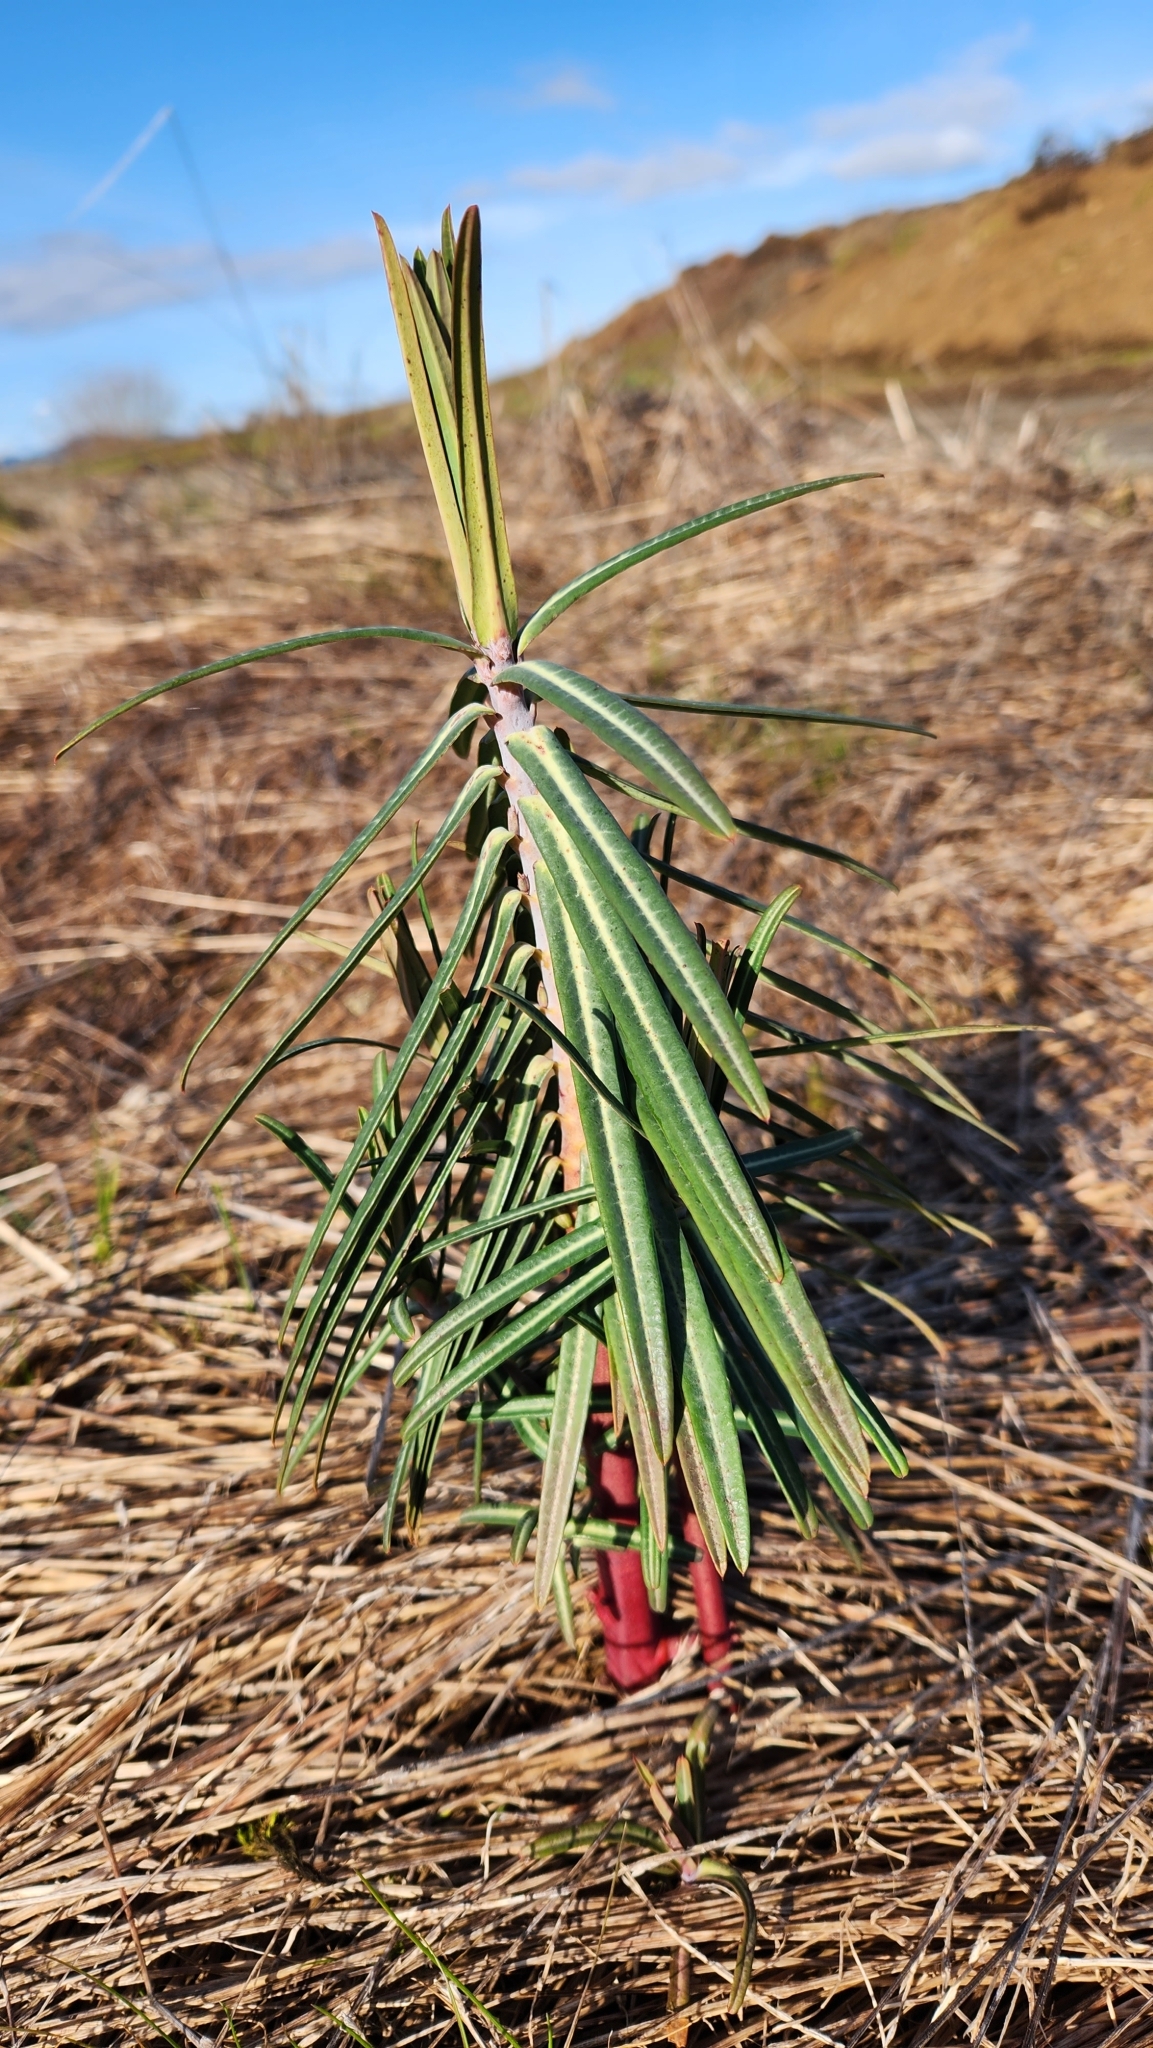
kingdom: Plantae
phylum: Tracheophyta
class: Magnoliopsida
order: Malpighiales
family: Euphorbiaceae
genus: Euphorbia
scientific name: Euphorbia lathyris
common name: Caper spurge
